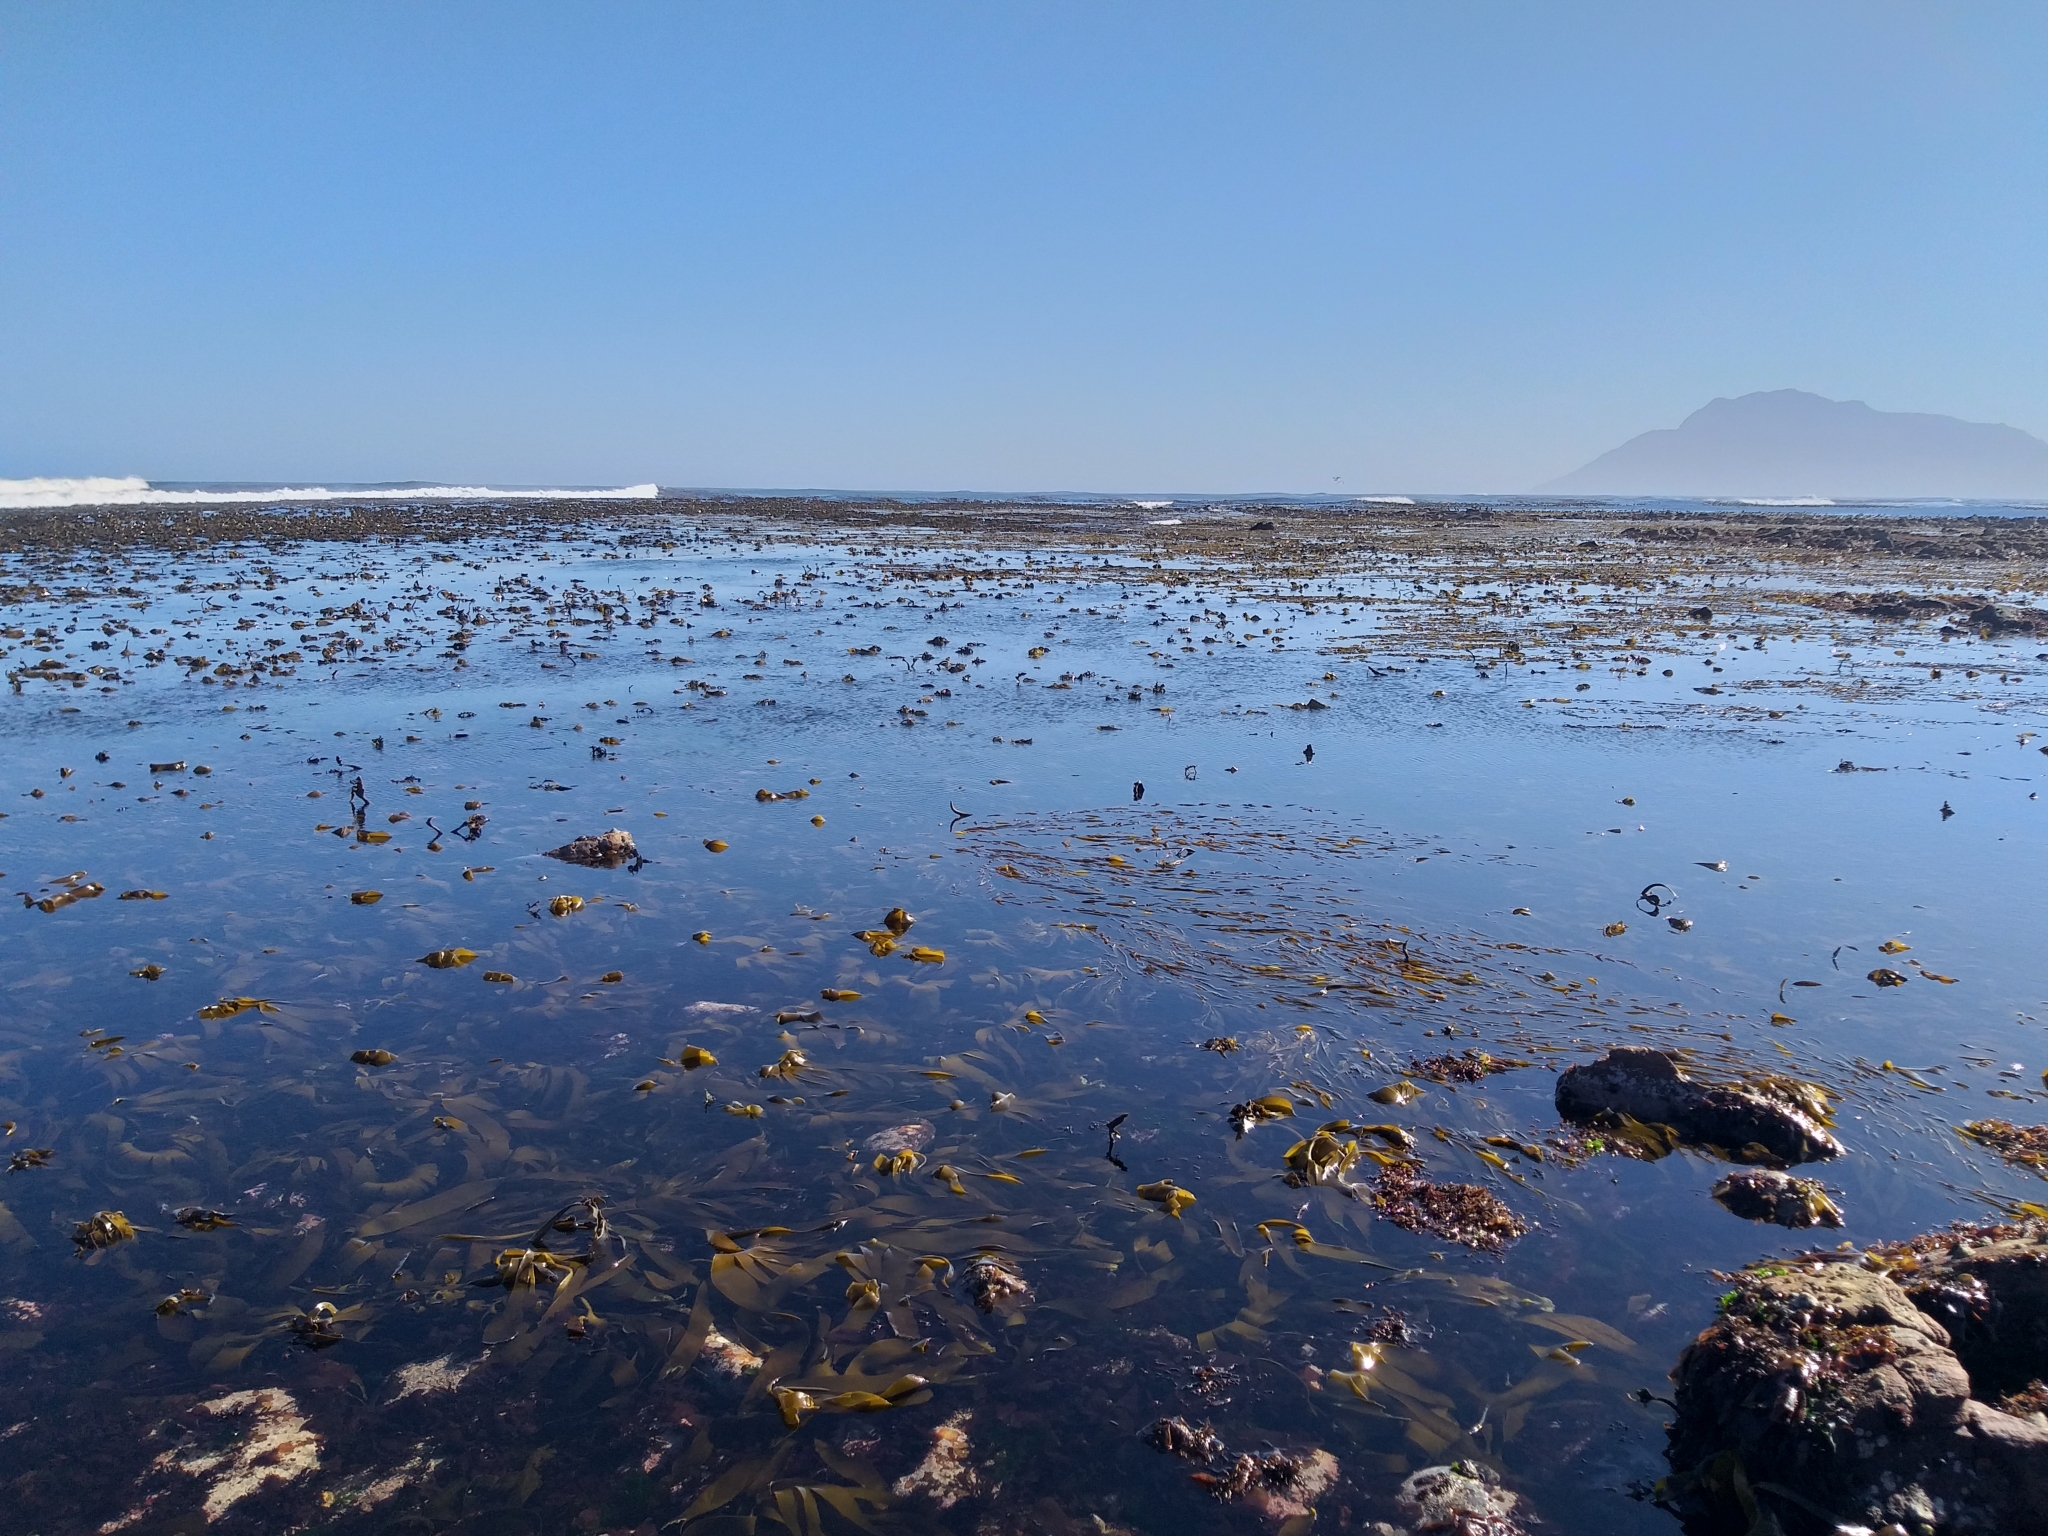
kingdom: Chromista
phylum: Ochrophyta
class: Phaeophyceae
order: Fucales
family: Sargassaceae
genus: Axillariella
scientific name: Axillariella constricta
